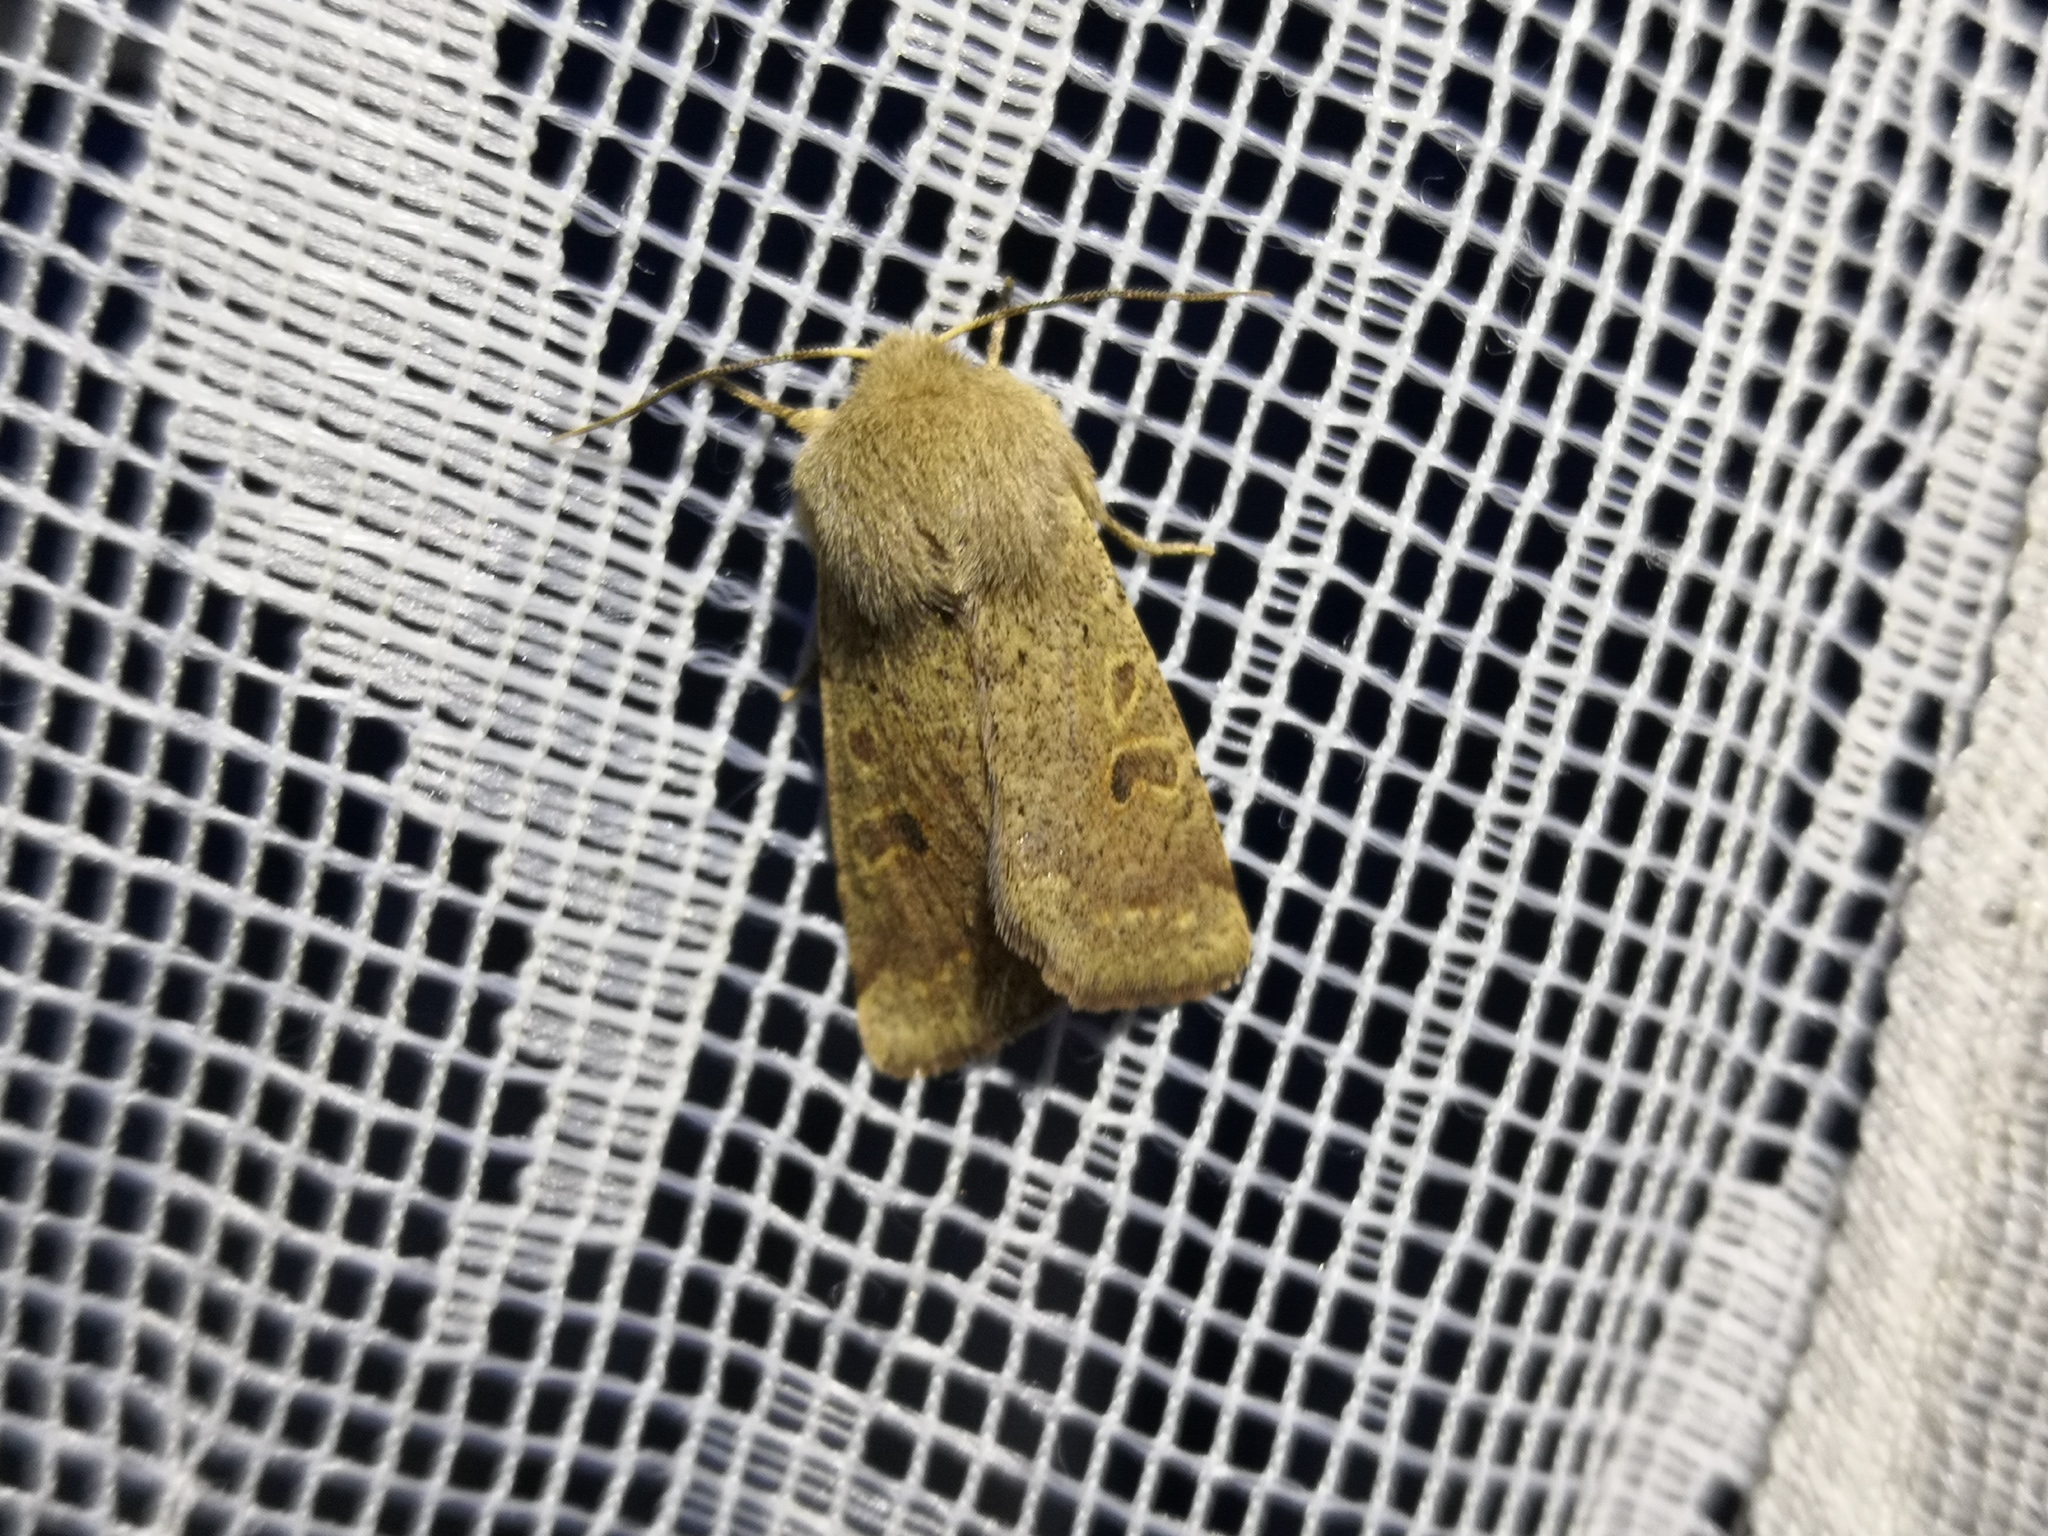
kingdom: Animalia
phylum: Arthropoda
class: Insecta
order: Lepidoptera
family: Noctuidae
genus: Orthosia
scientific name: Orthosia cruda
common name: Small quaker
